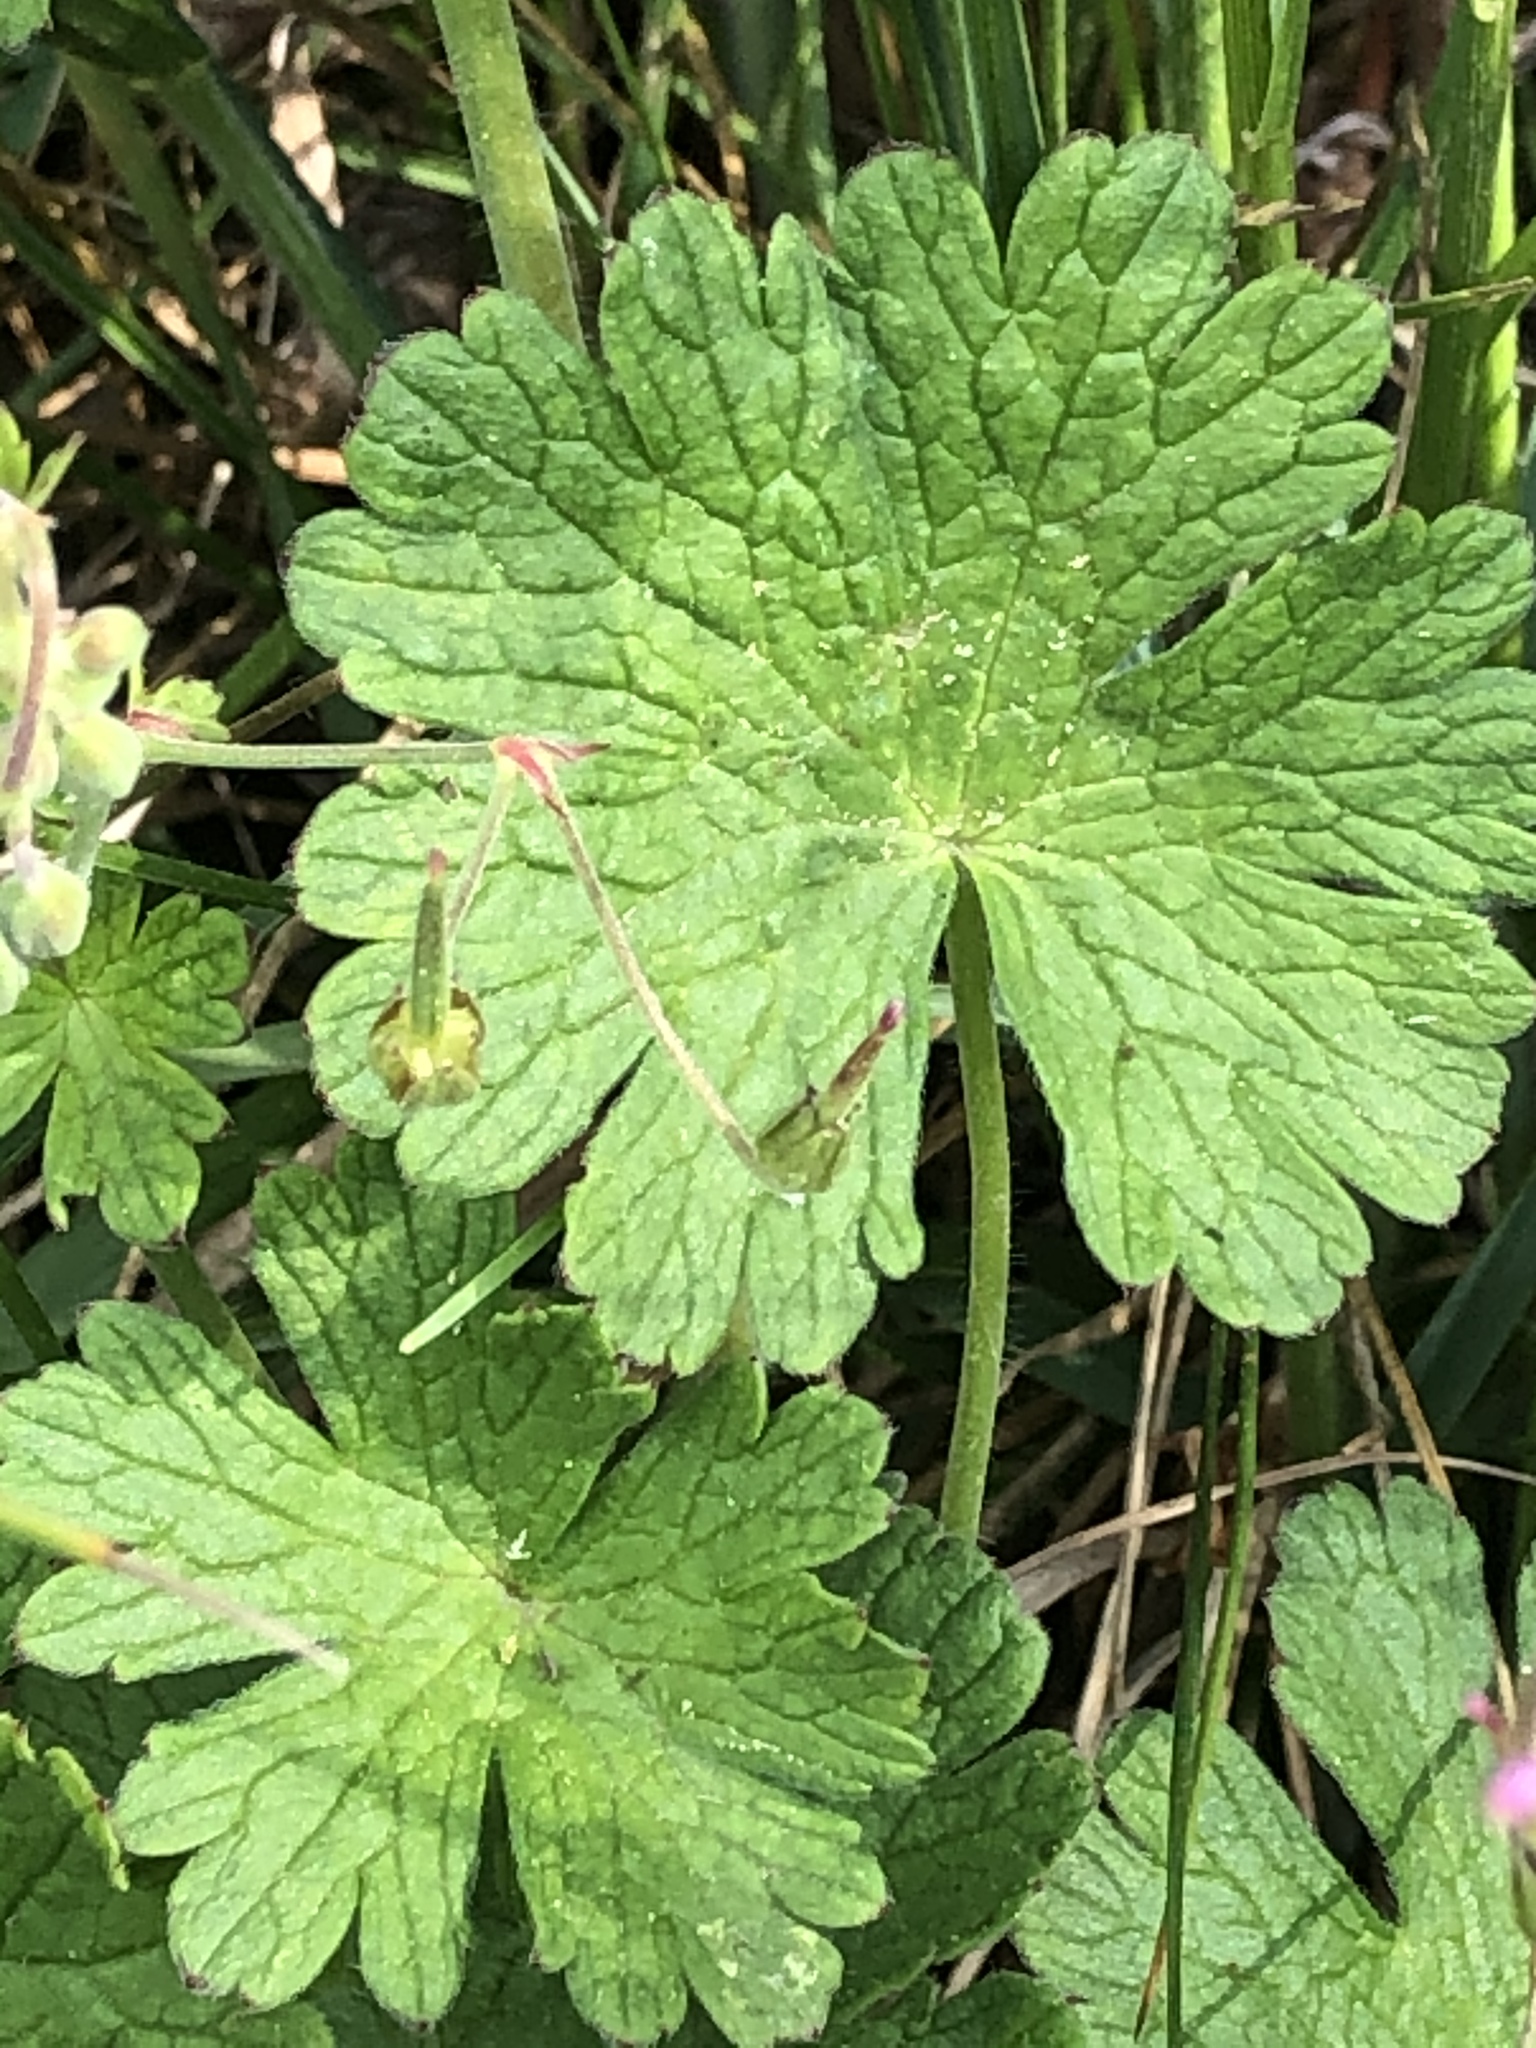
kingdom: Plantae
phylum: Tracheophyta
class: Magnoliopsida
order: Geraniales
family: Geraniaceae
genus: Geranium
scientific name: Geranium pyrenaicum
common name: Hedgerow crane's-bill
